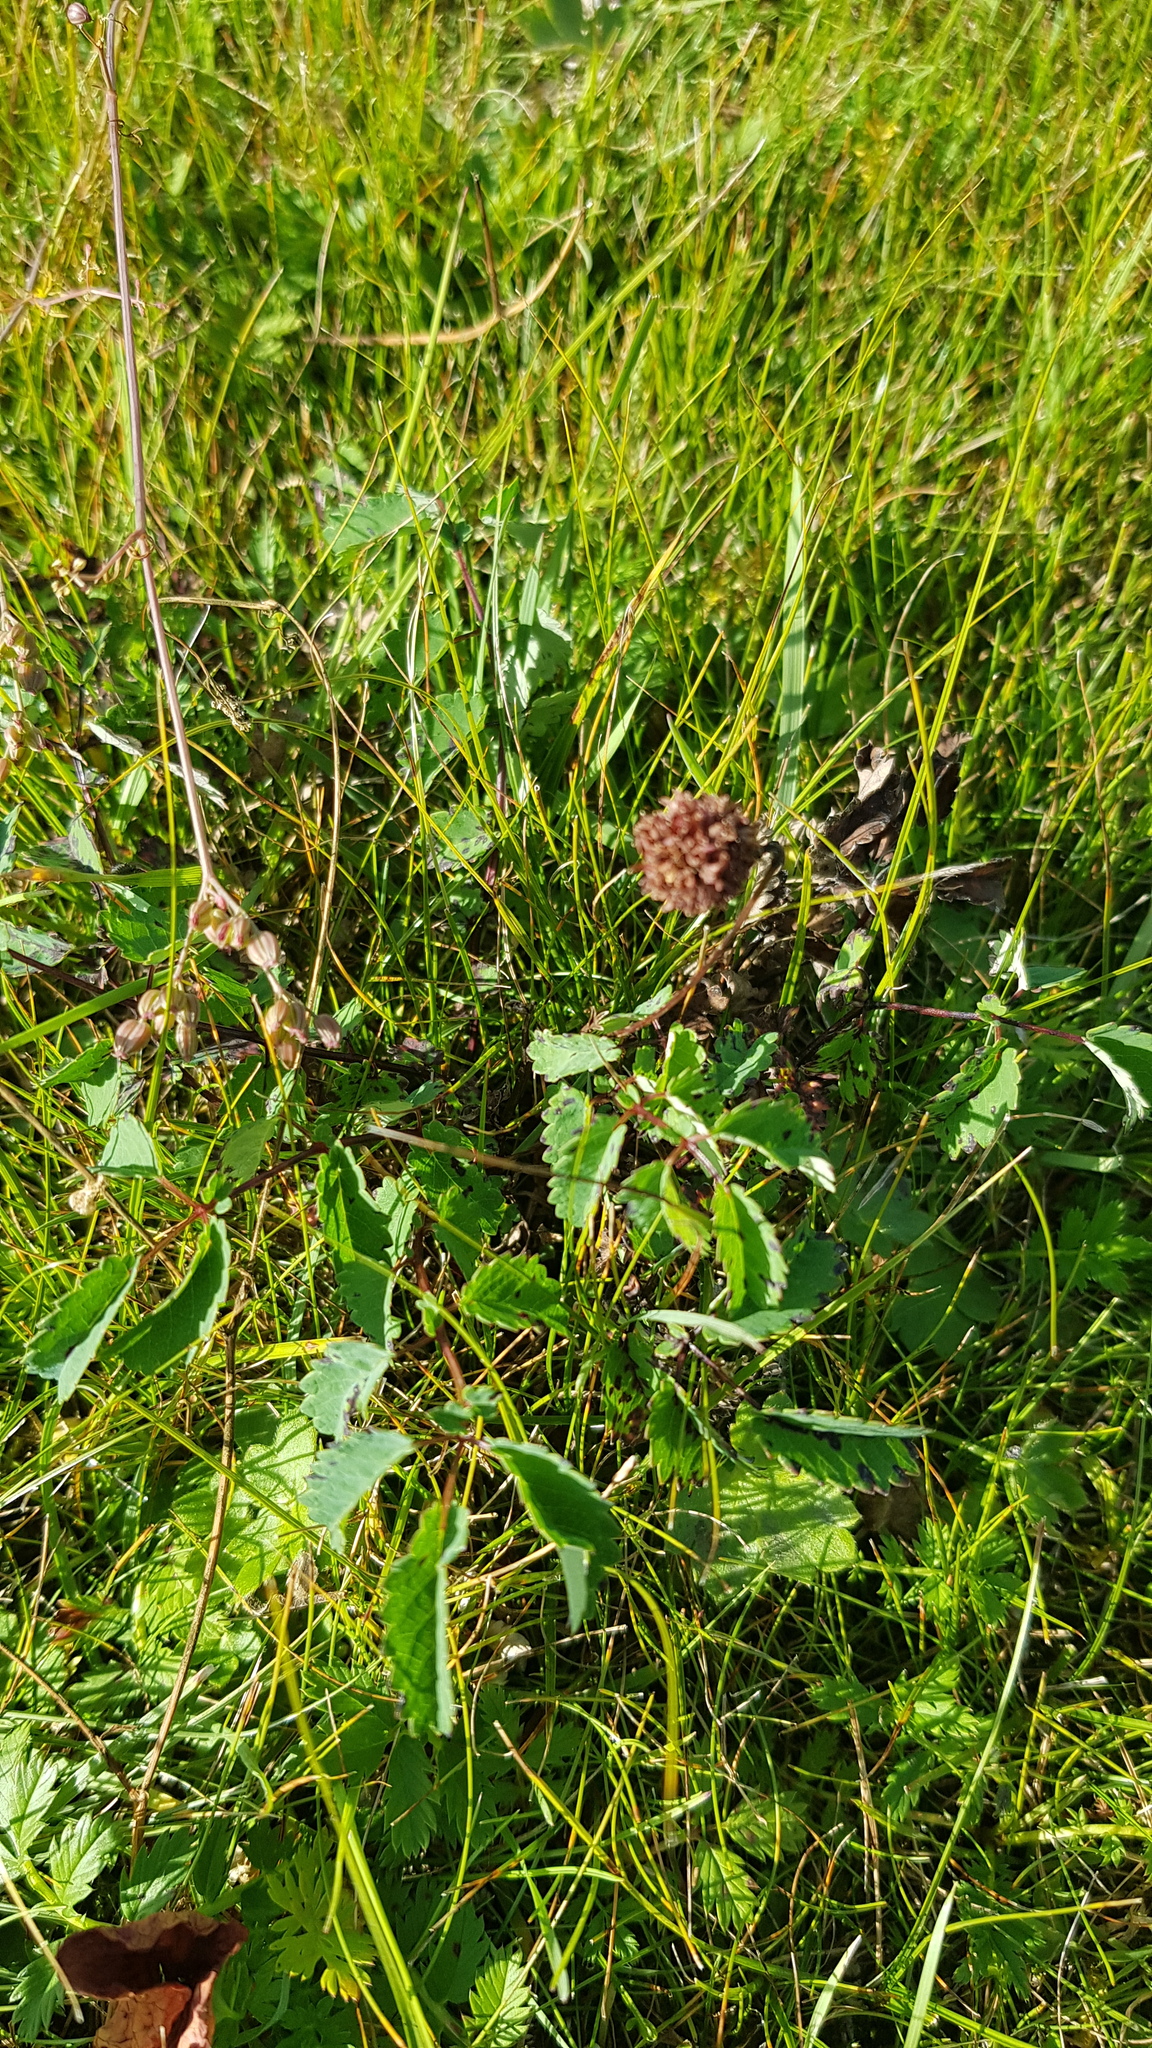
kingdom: Plantae
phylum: Tracheophyta
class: Magnoliopsida
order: Rosales
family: Rosaceae
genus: Sanguisorba
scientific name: Sanguisorba officinalis
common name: Great burnet
